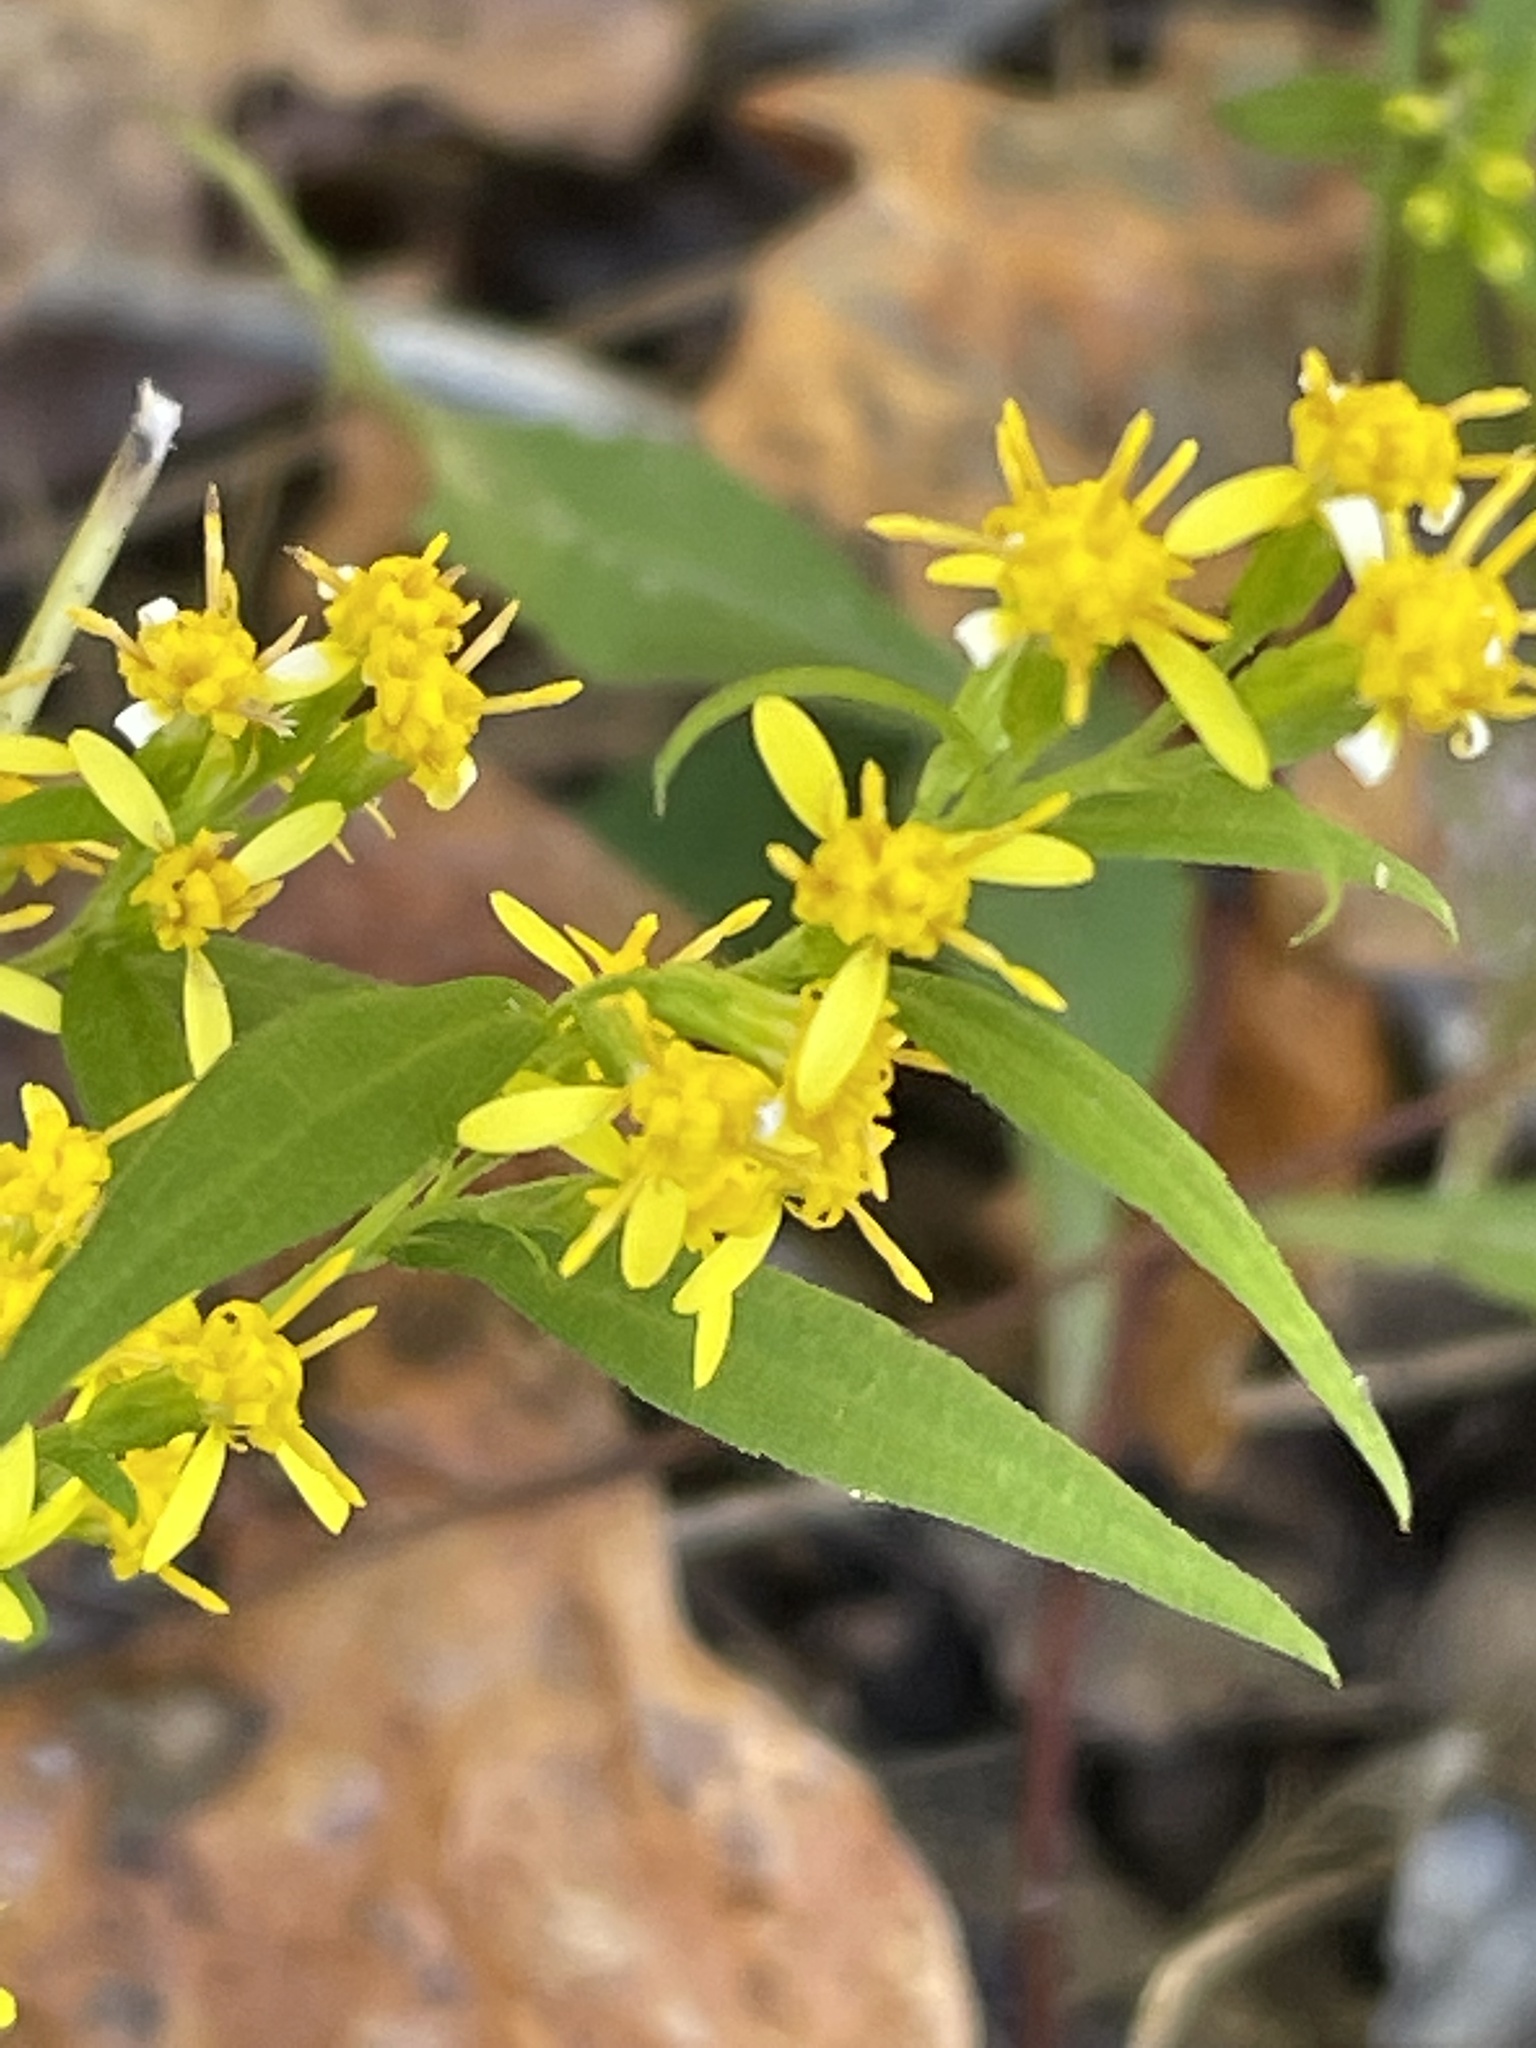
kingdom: Plantae
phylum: Tracheophyta
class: Magnoliopsida
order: Asterales
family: Asteraceae
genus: Solidago
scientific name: Solidago caesia
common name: Woodland goldenrod
